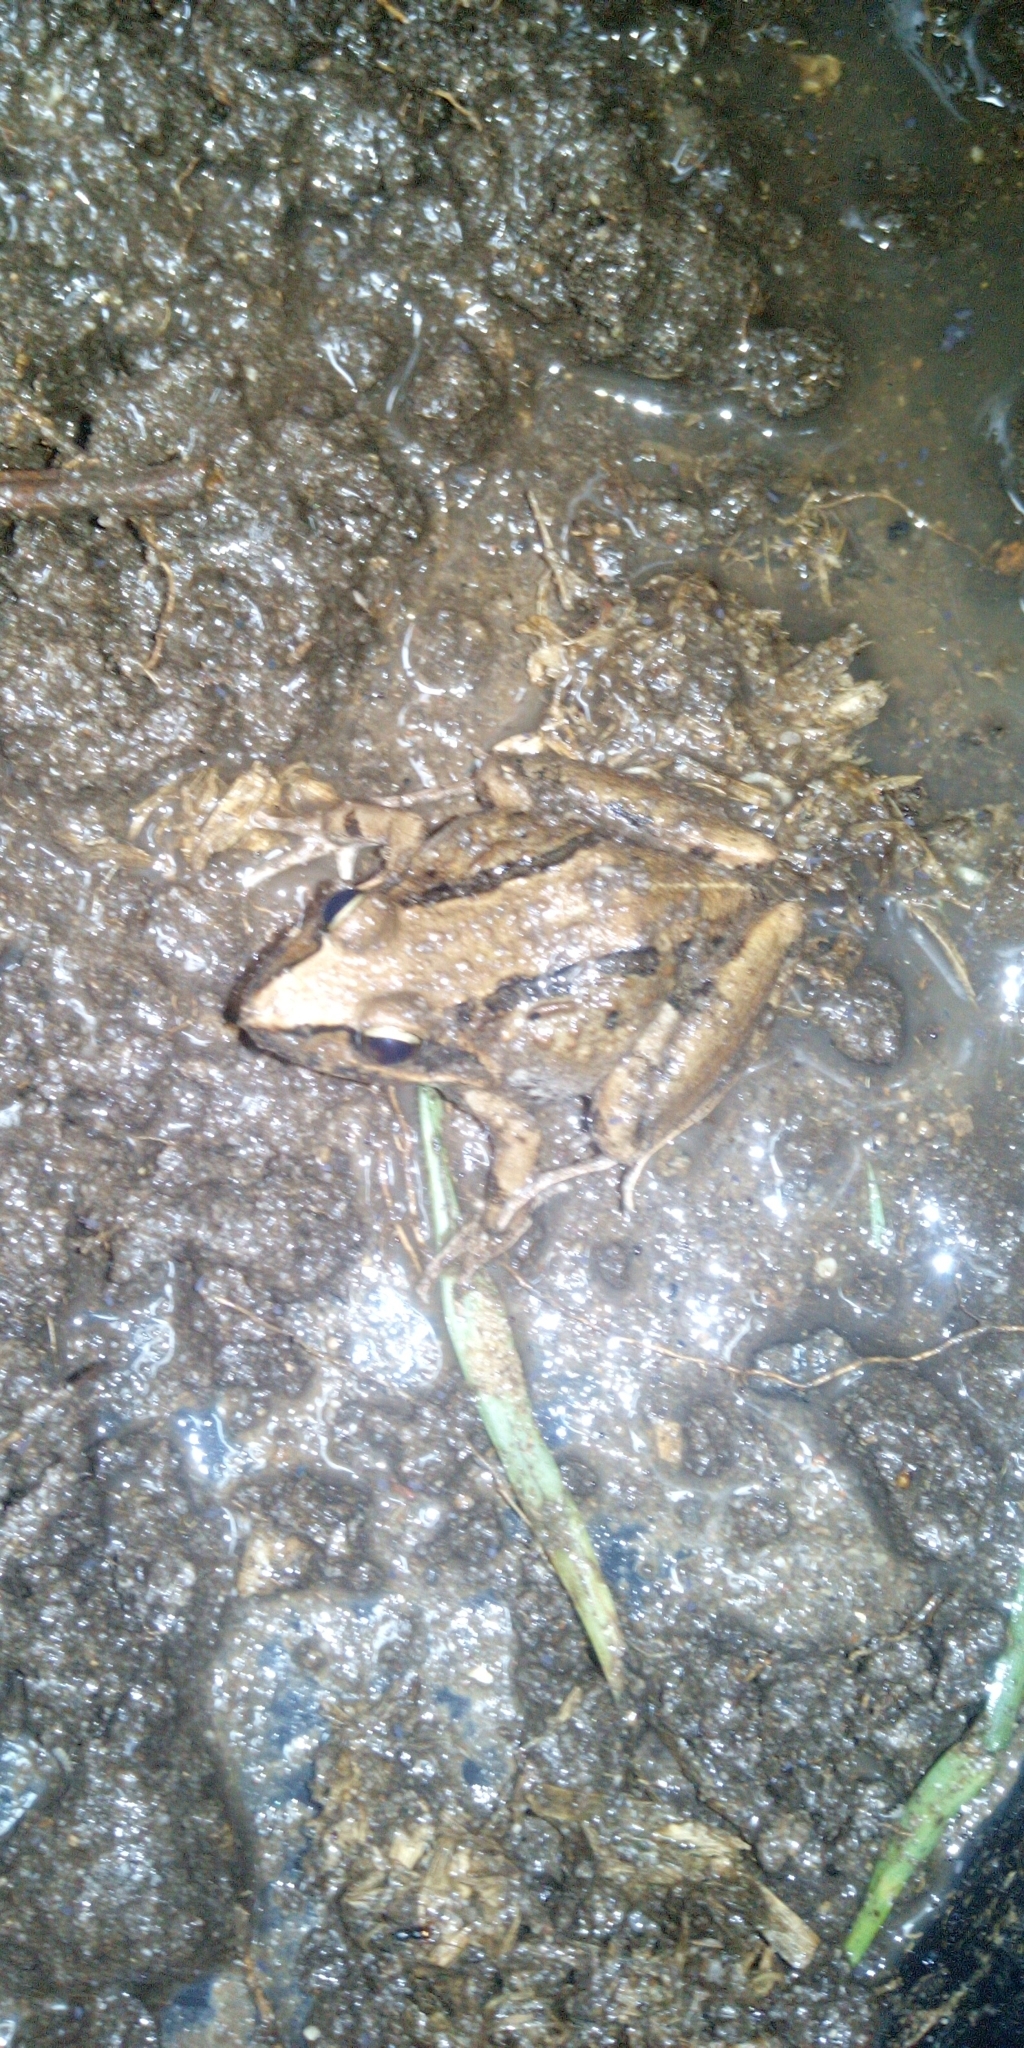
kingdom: Animalia
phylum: Chordata
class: Amphibia
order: Anura
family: Pyxicephalidae
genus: Strongylopus
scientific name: Strongylopus grayii
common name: Gray's stream frog
